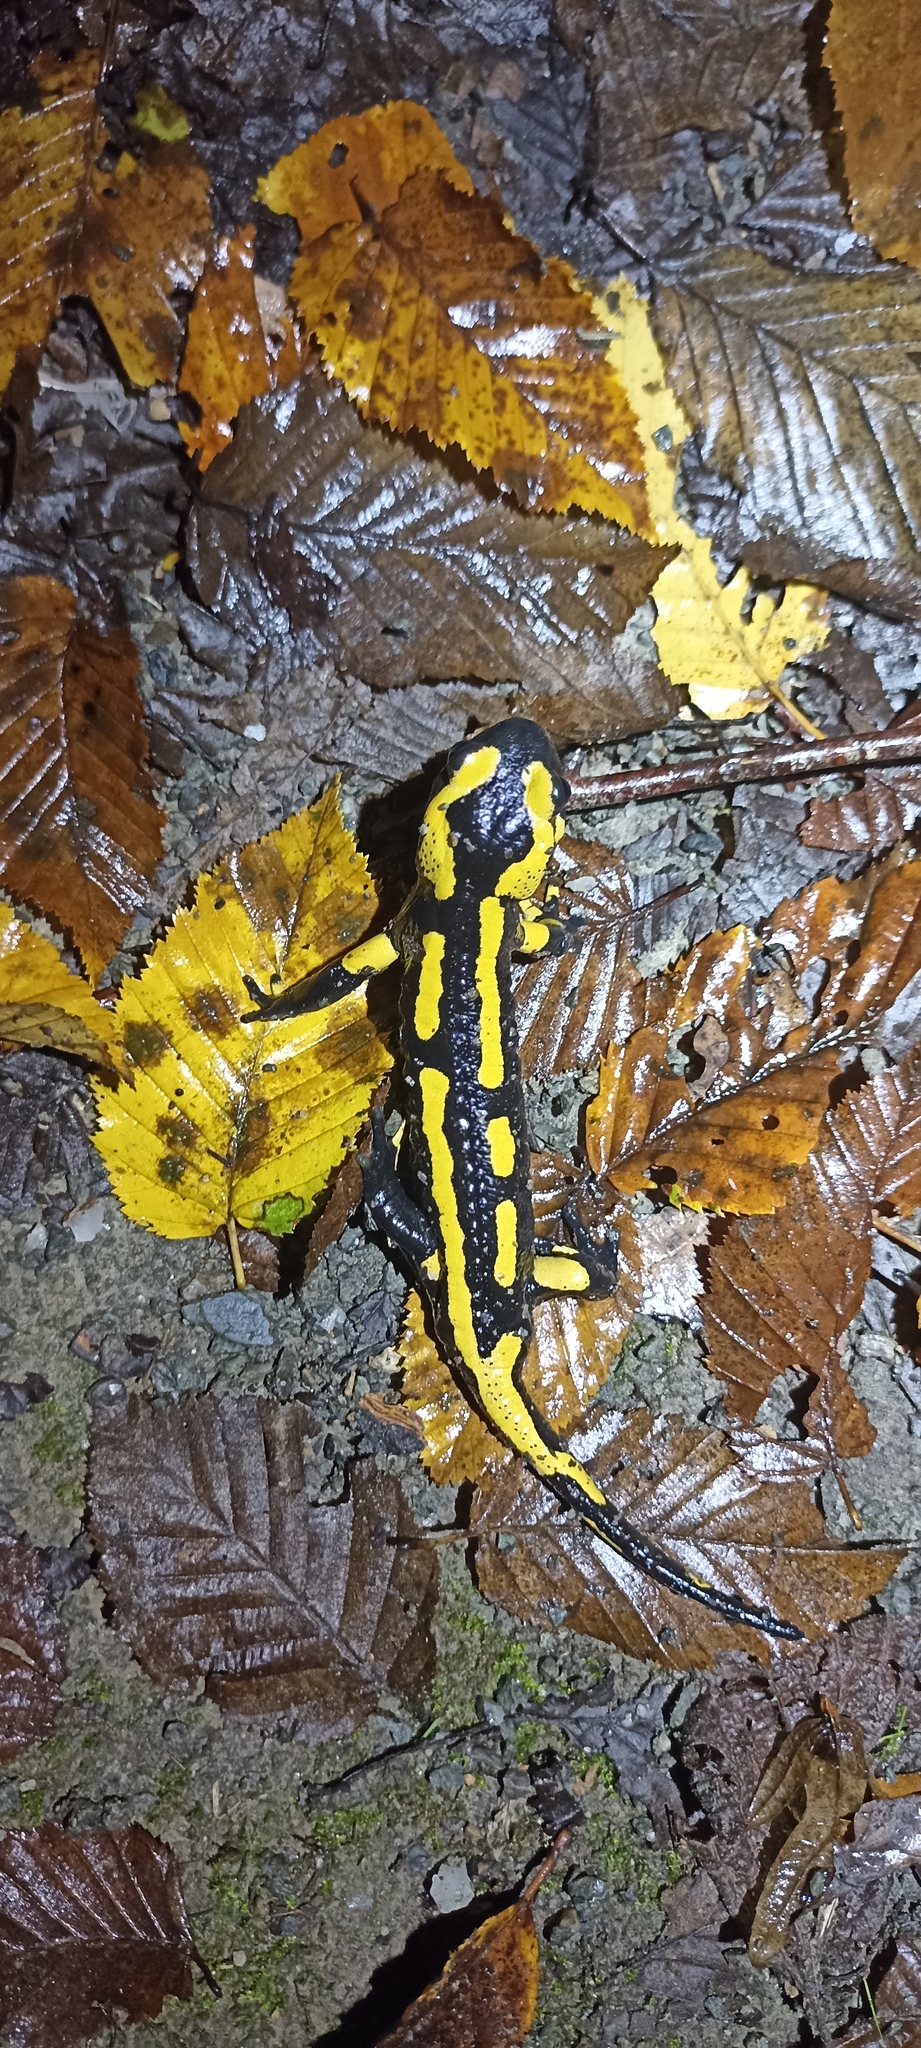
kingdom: Animalia
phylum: Chordata
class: Amphibia
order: Caudata
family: Salamandridae
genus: Salamandra
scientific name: Salamandra salamandra
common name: Fire salamander
